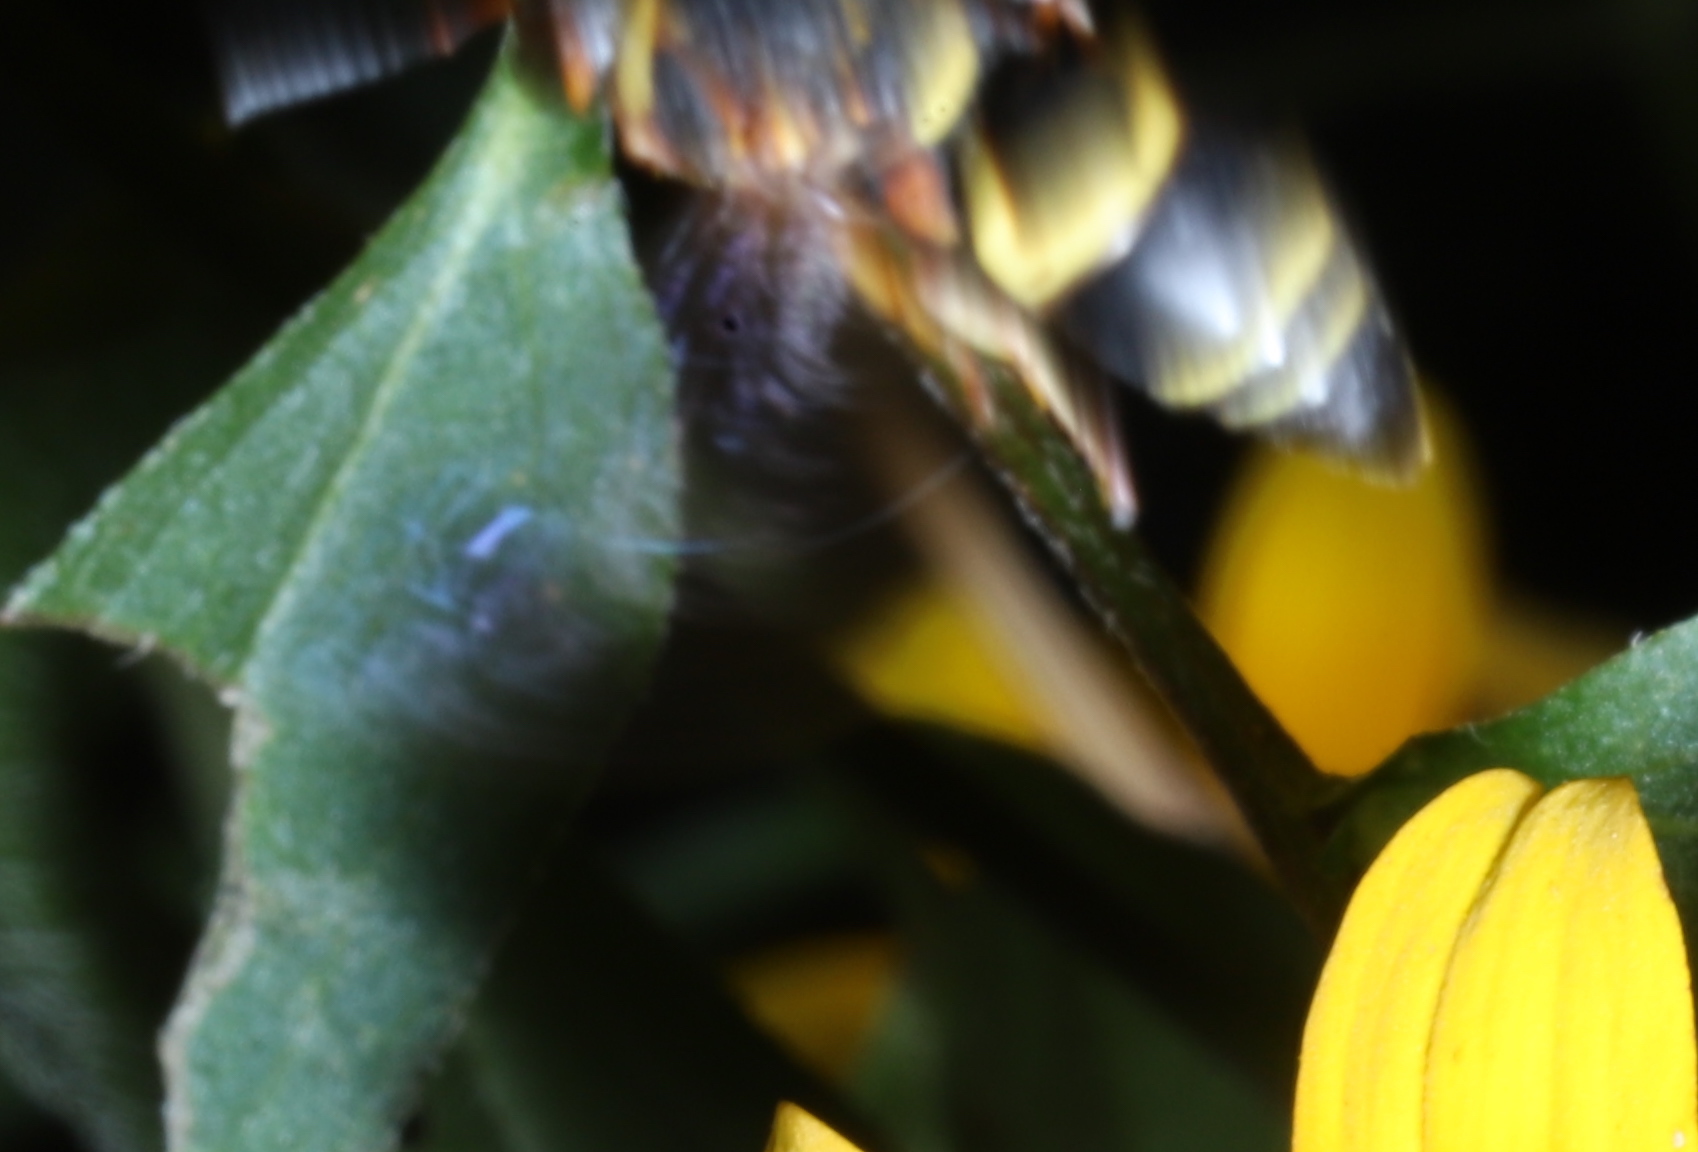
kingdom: Animalia
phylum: Arthropoda
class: Insecta
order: Hymenoptera
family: Eumenidae
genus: Euodynerus
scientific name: Euodynerus hidalgo
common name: Wasp
